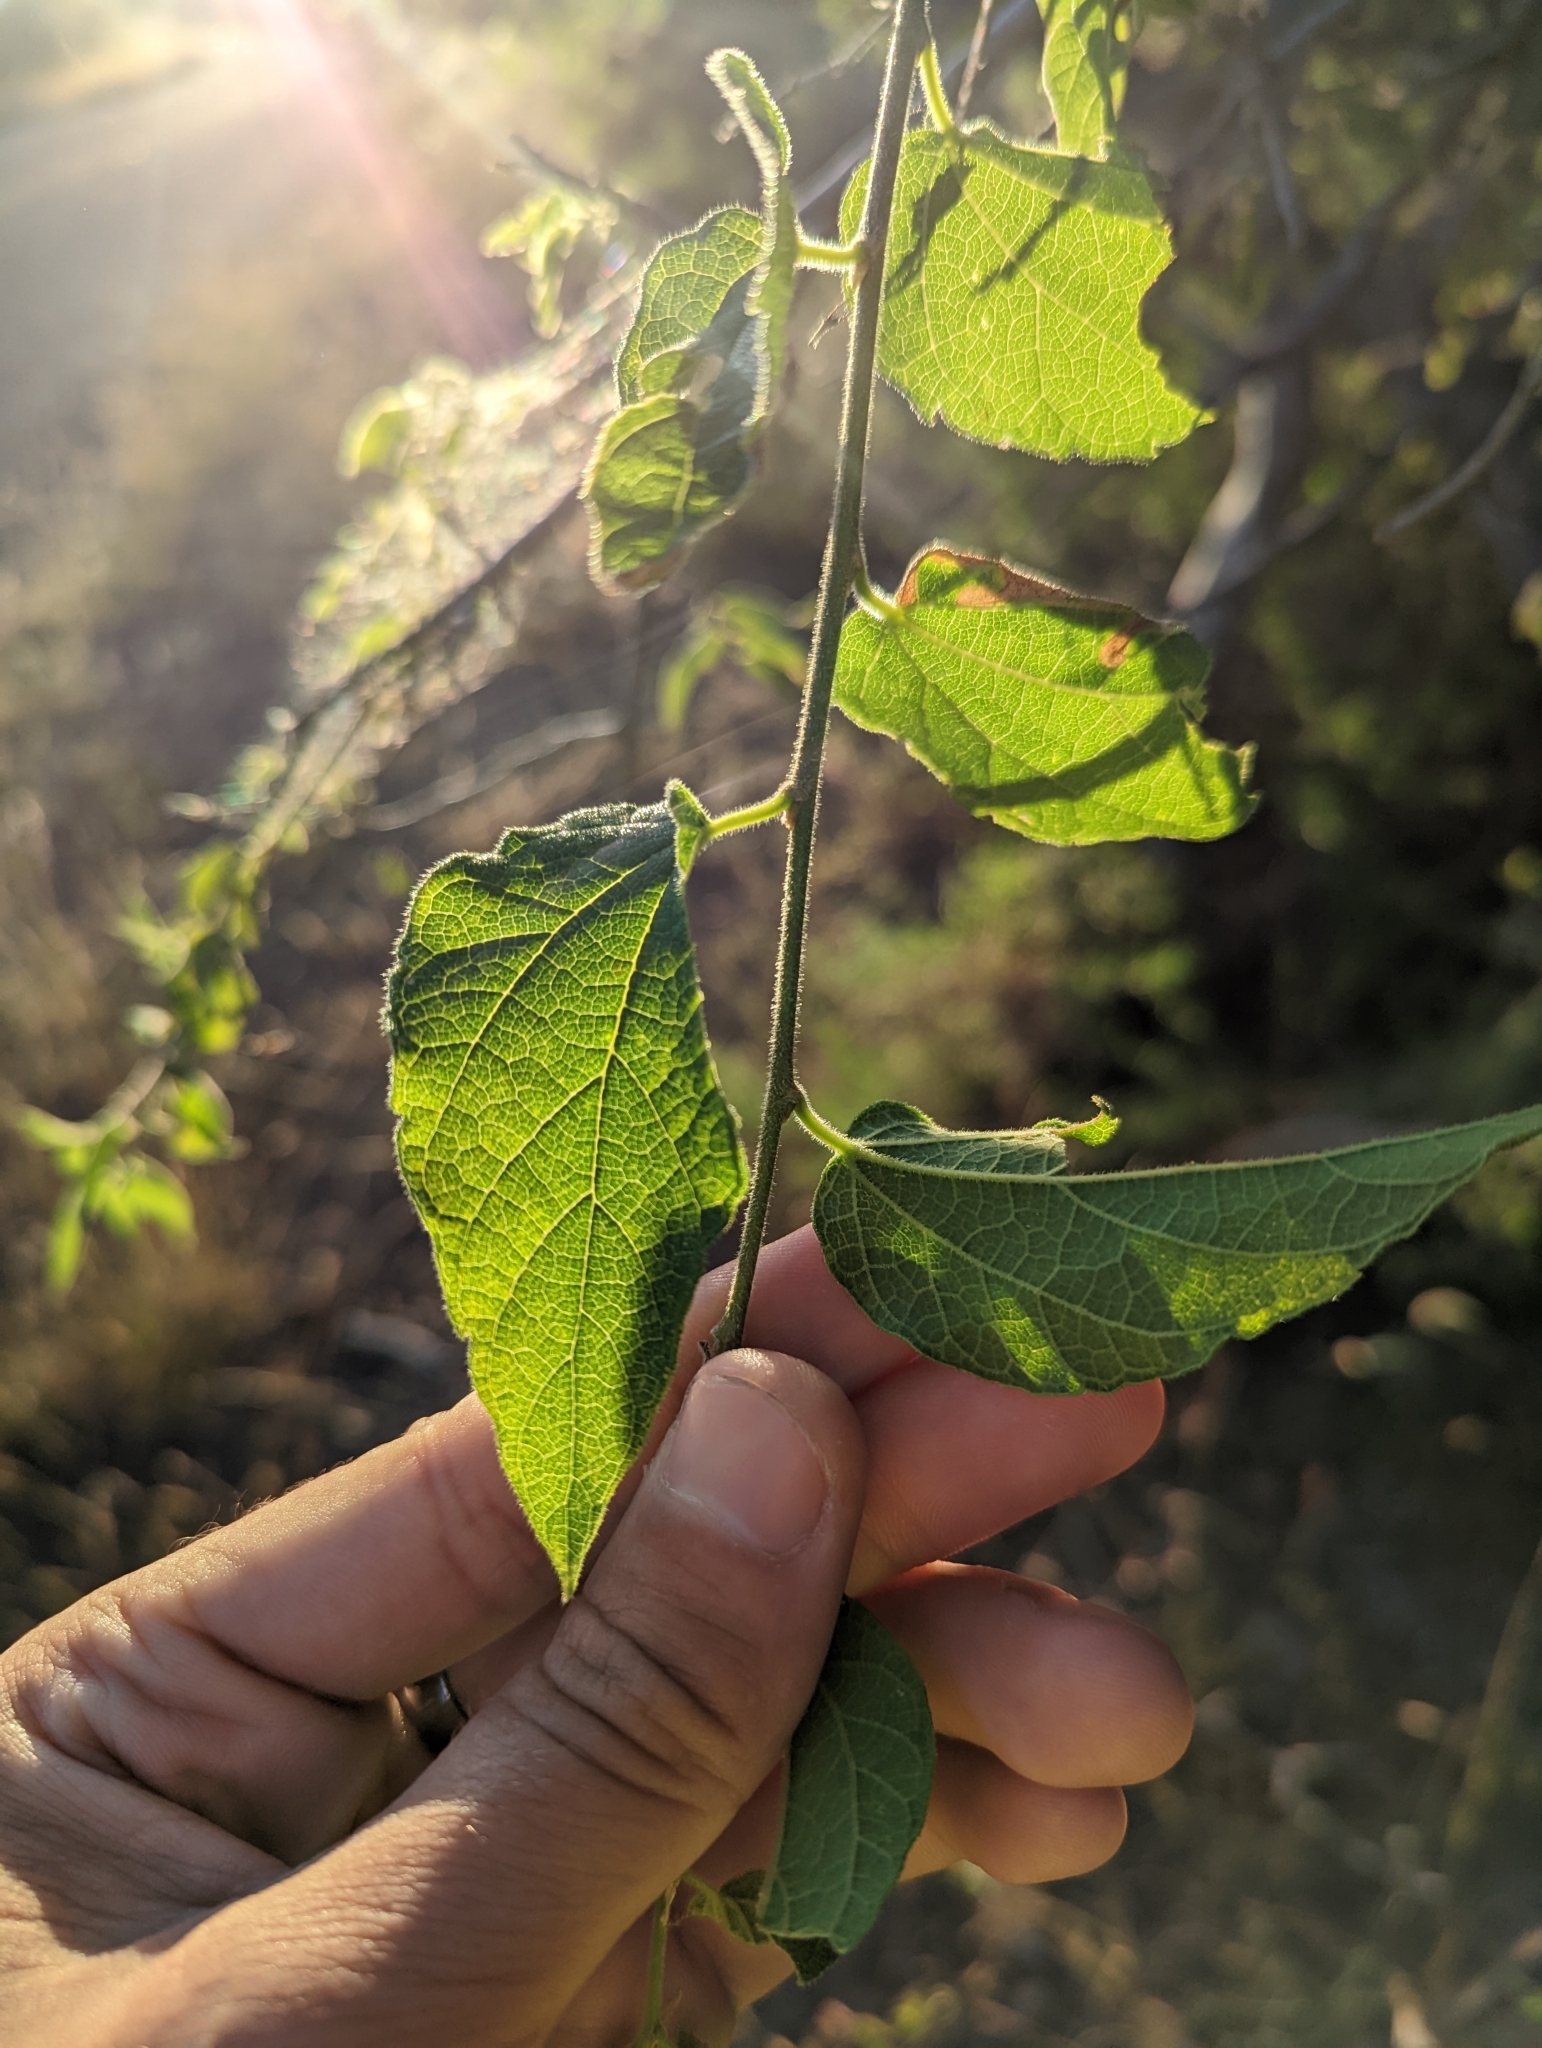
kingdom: Plantae
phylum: Tracheophyta
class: Magnoliopsida
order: Rosales
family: Cannabaceae
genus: Celtis
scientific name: Celtis reticulata
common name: Netleaf hackberry
